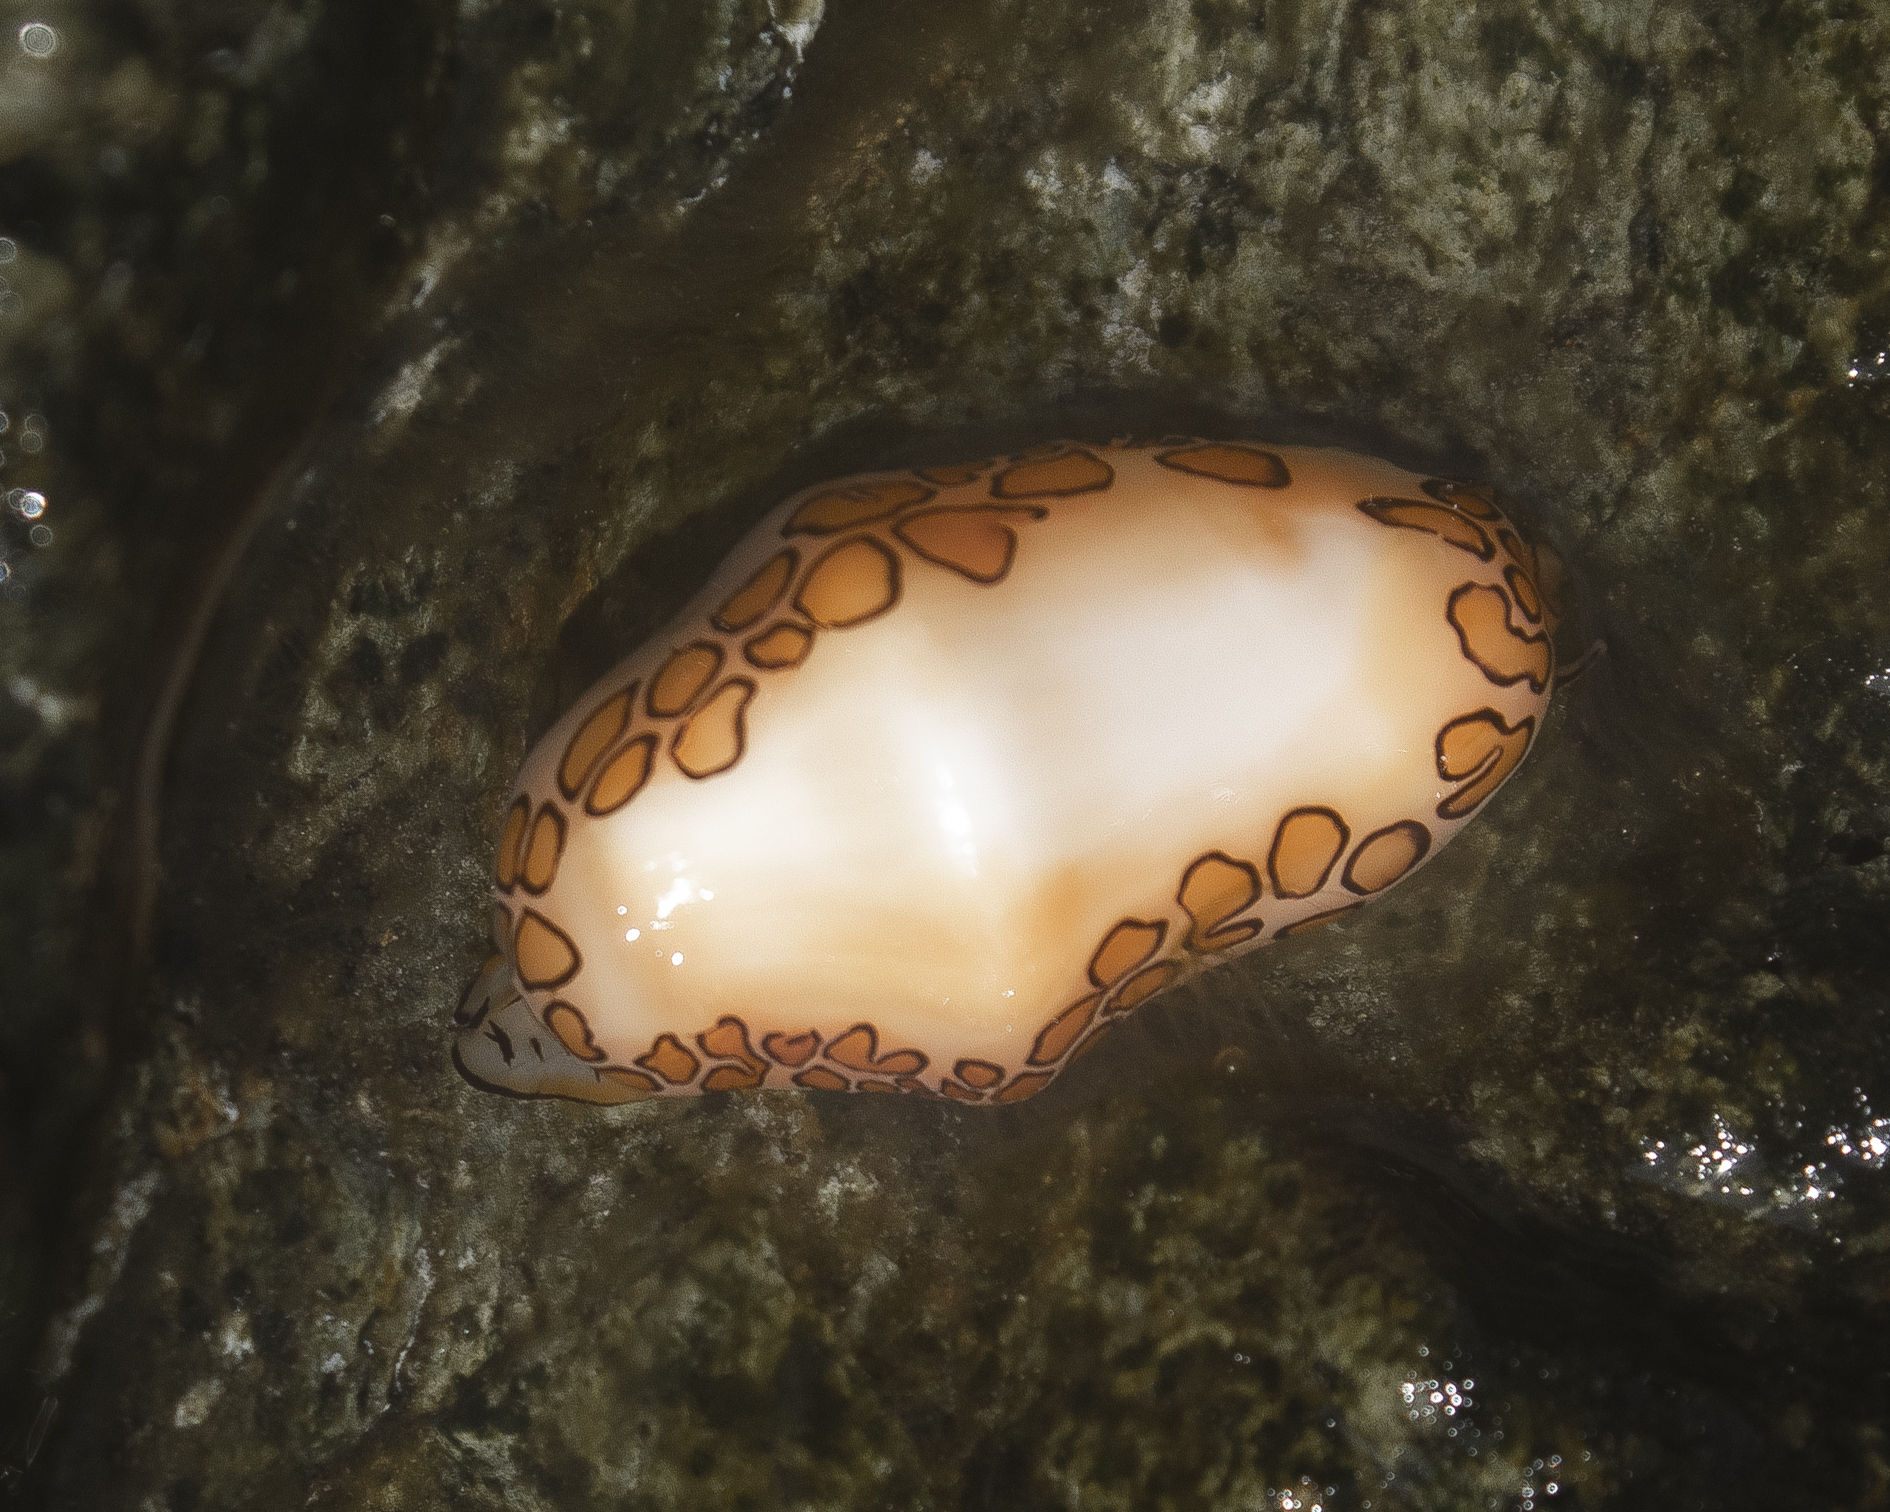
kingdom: Animalia
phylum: Mollusca
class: Gastropoda
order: Littorinimorpha
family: Ovulidae
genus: Cyphoma
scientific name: Cyphoma gibbosum
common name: Flamingo tongue
